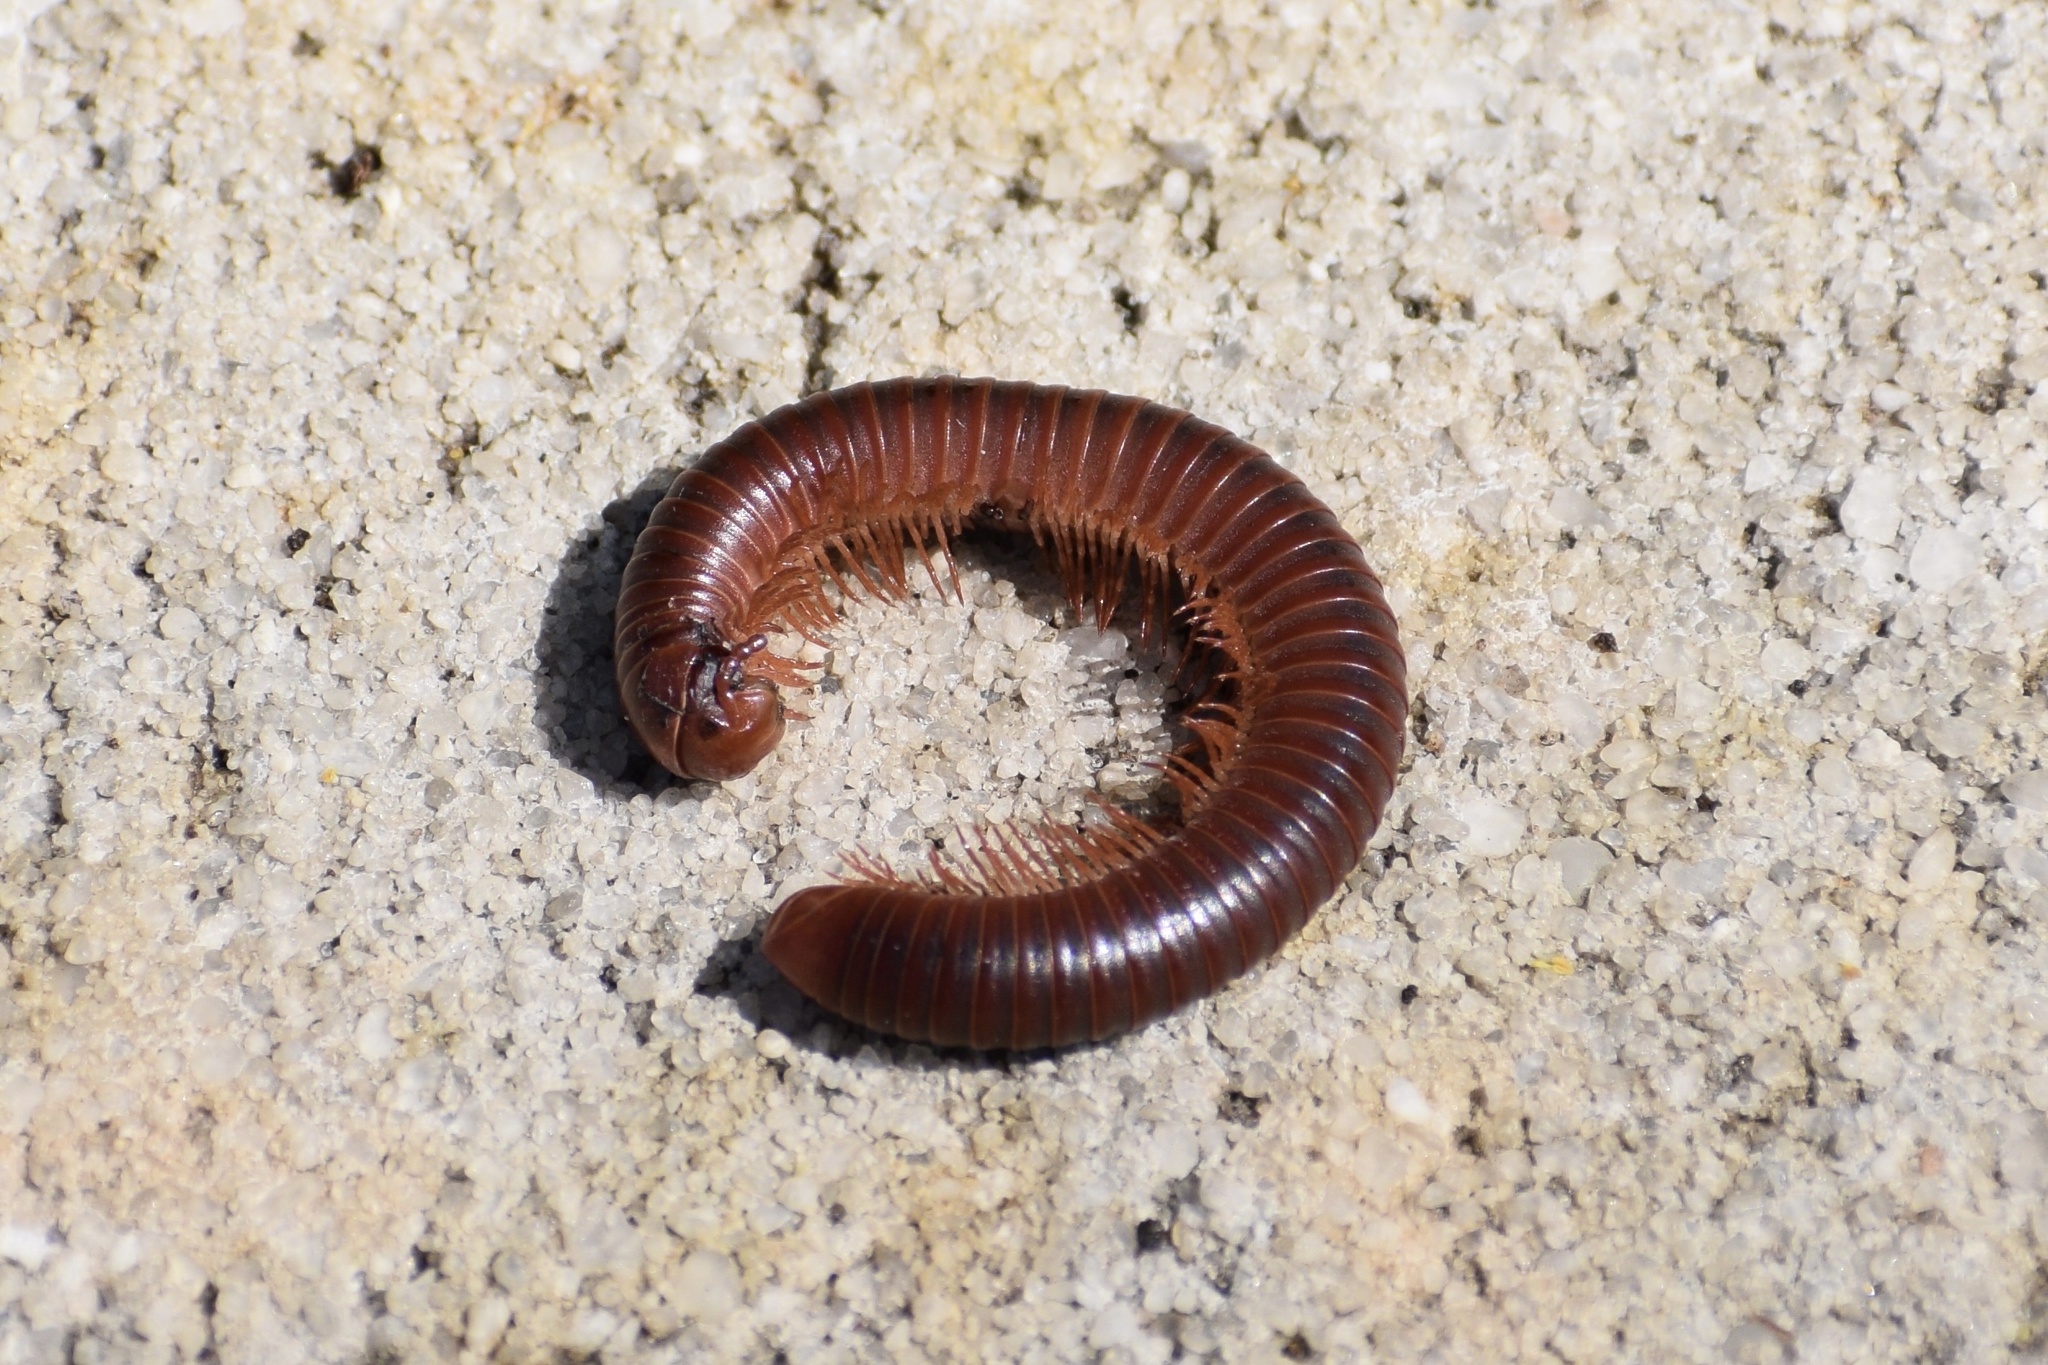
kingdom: Animalia
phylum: Arthropoda
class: Diplopoda
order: Spirobolida
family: Pachybolidae
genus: Trigoniulus
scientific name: Trigoniulus corallinus
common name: Millipede
